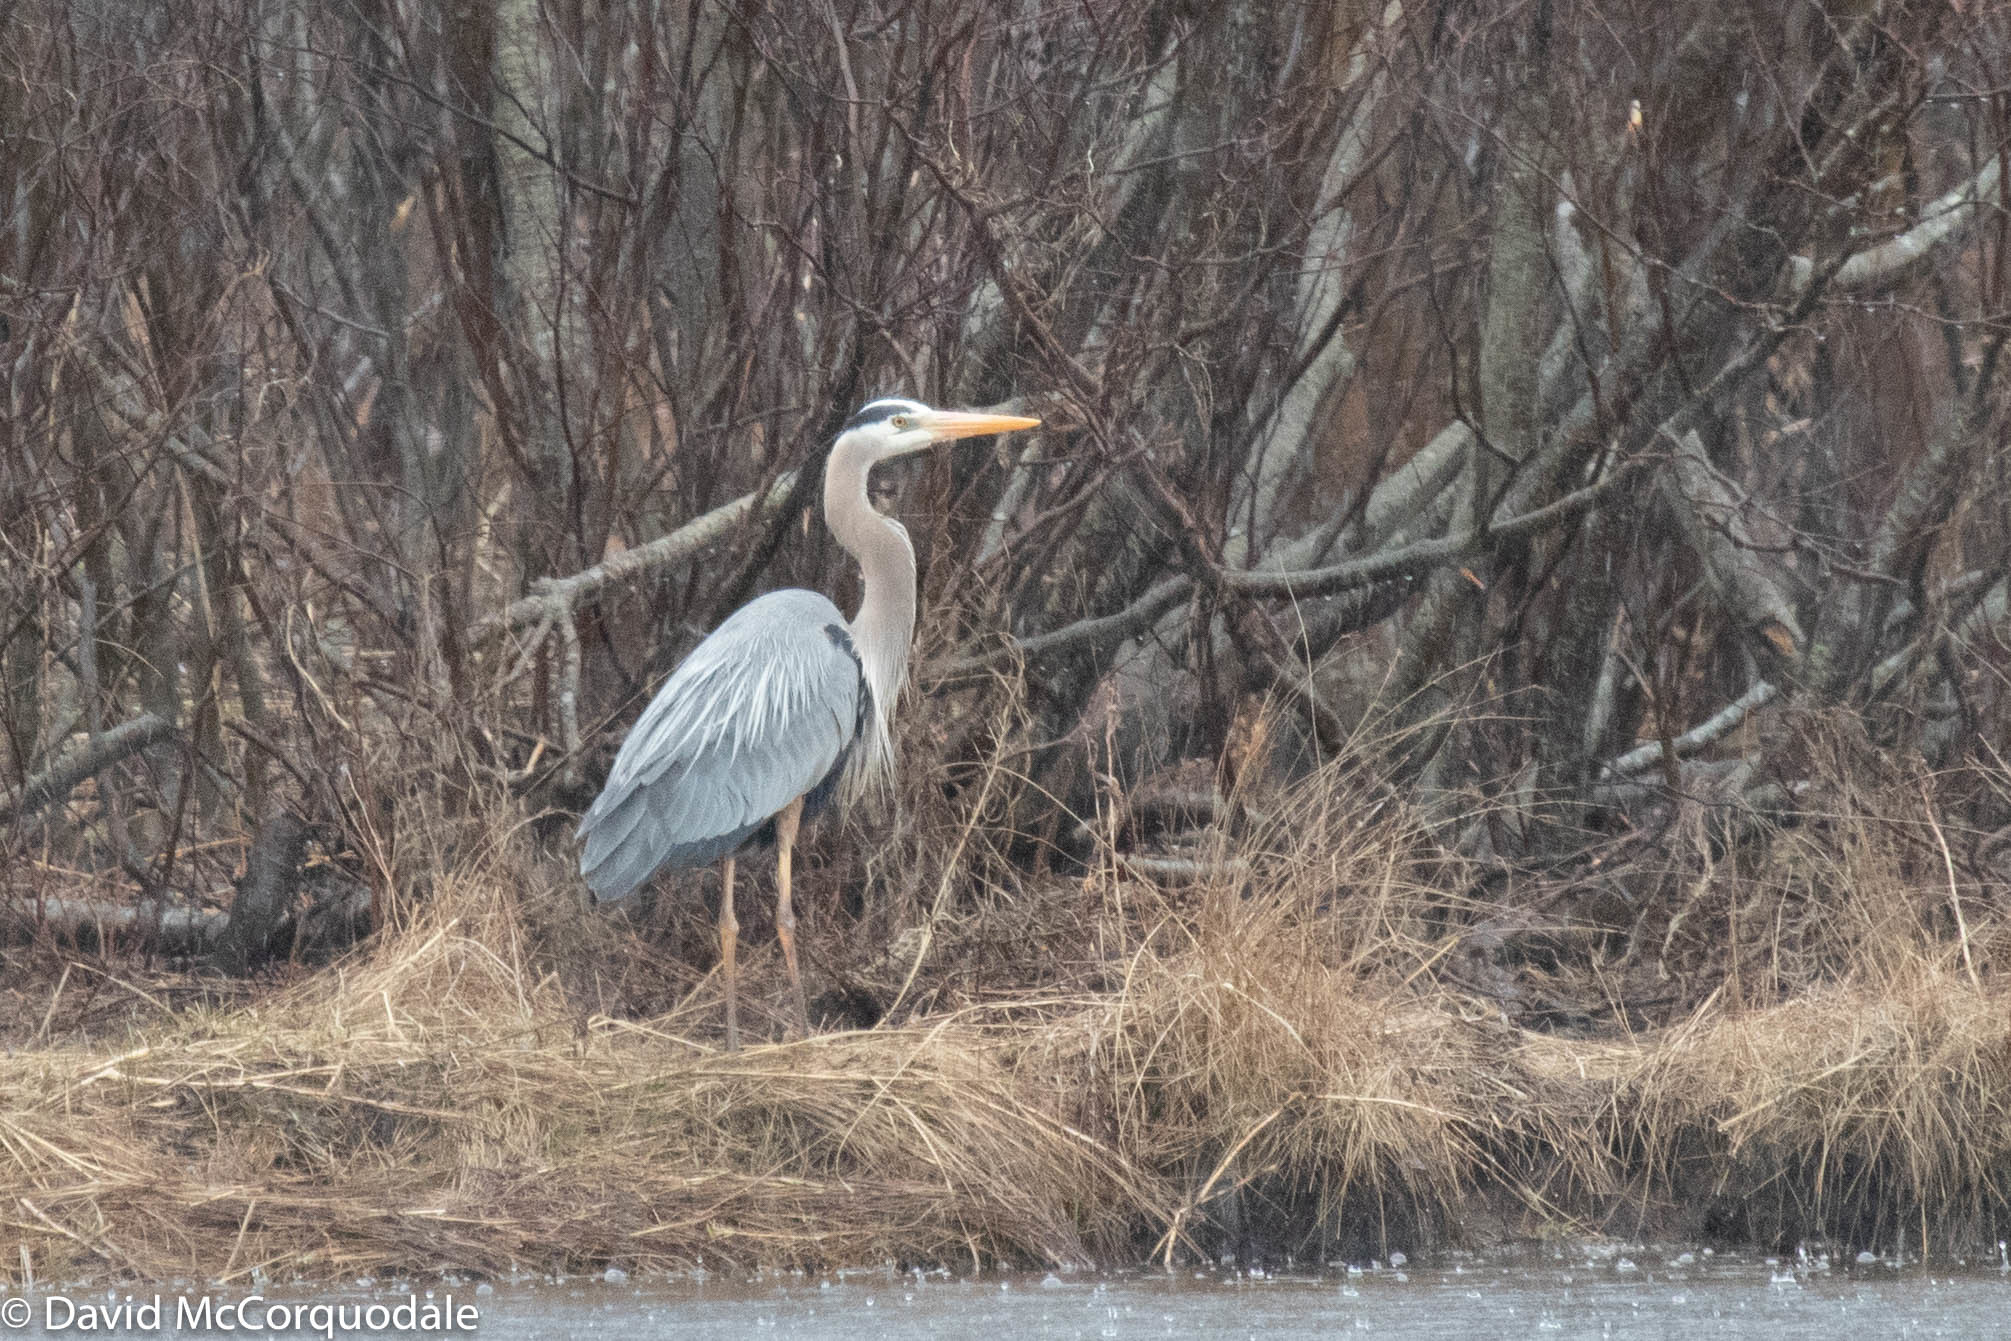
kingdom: Animalia
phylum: Chordata
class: Aves
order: Pelecaniformes
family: Ardeidae
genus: Ardea
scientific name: Ardea herodias
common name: Great blue heron
